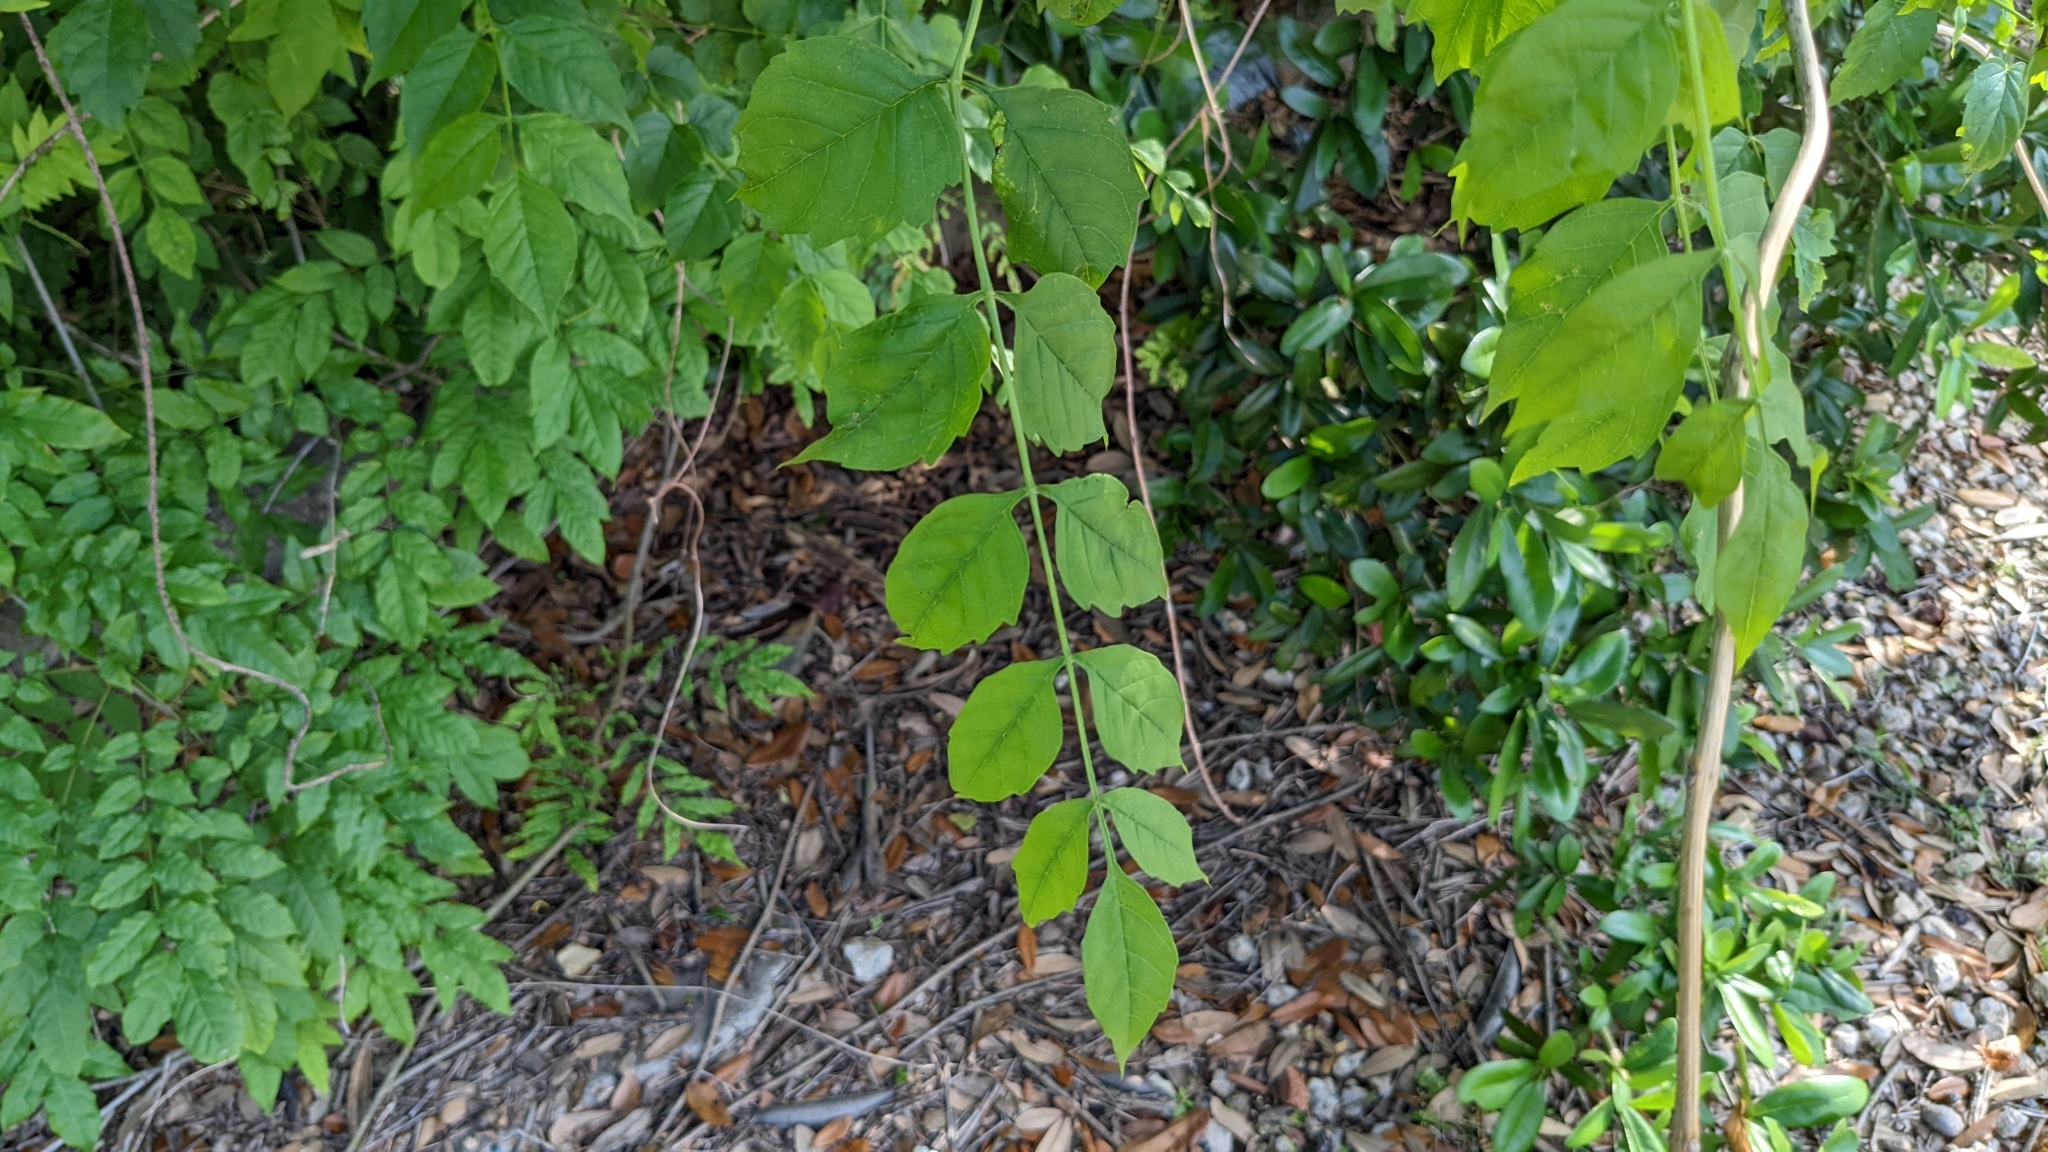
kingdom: Plantae
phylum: Tracheophyta
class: Magnoliopsida
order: Lamiales
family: Bignoniaceae
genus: Campsis
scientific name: Campsis radicans
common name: Trumpet-creeper
